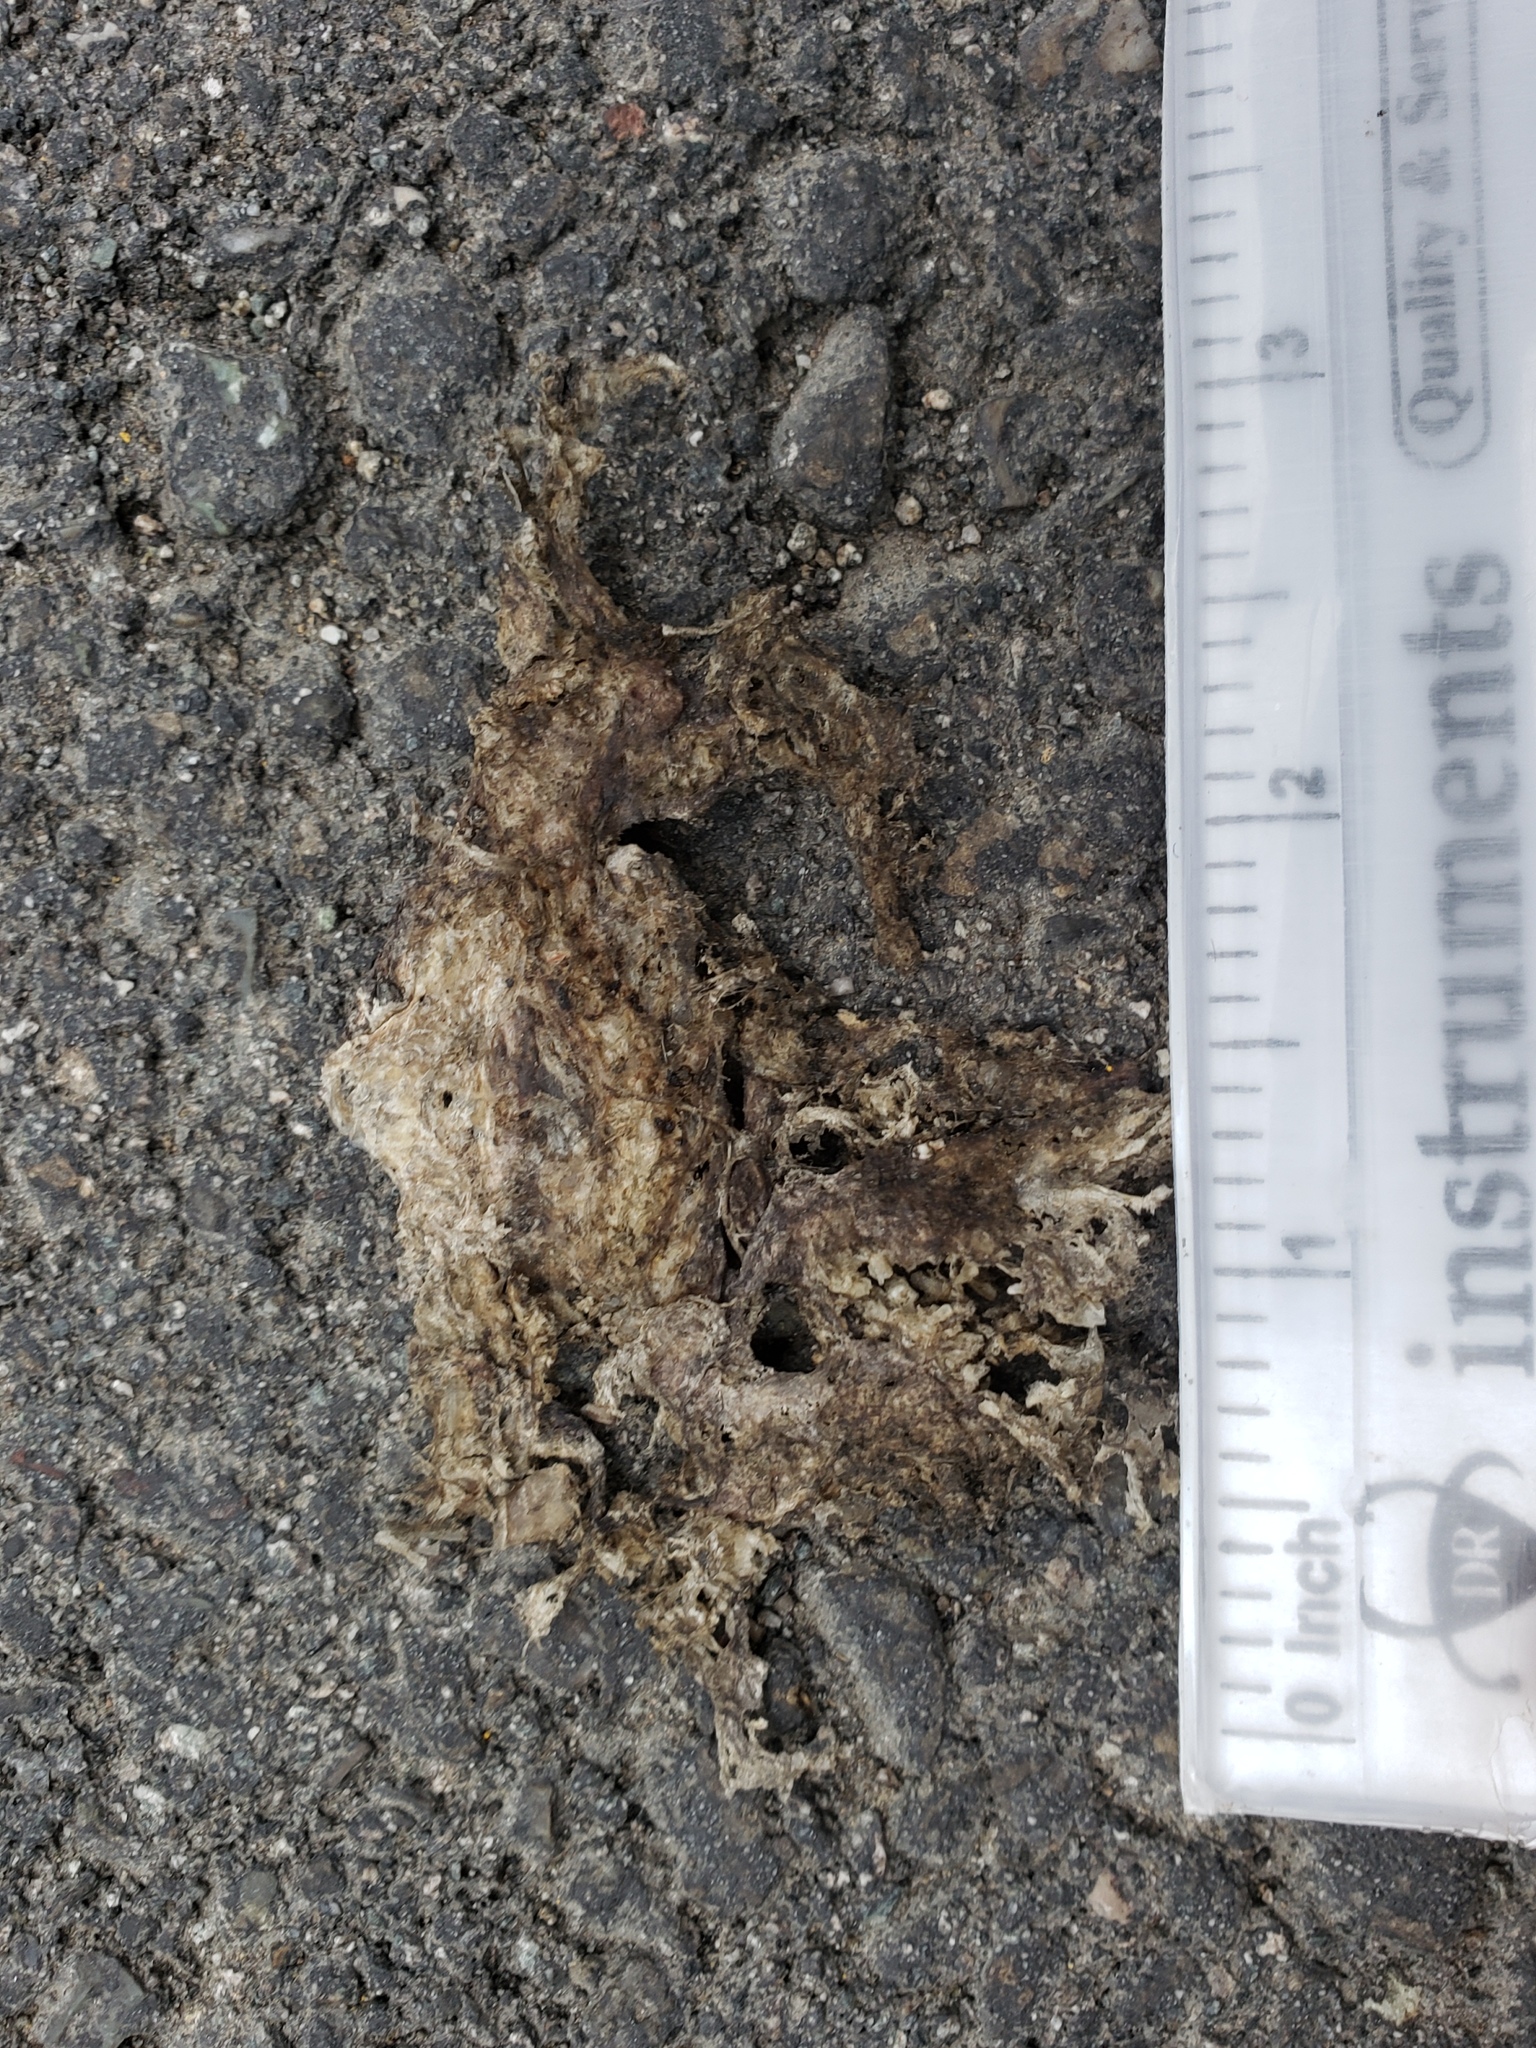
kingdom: Animalia
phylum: Chordata
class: Amphibia
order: Caudata
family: Salamandridae
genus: Taricha
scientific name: Taricha
